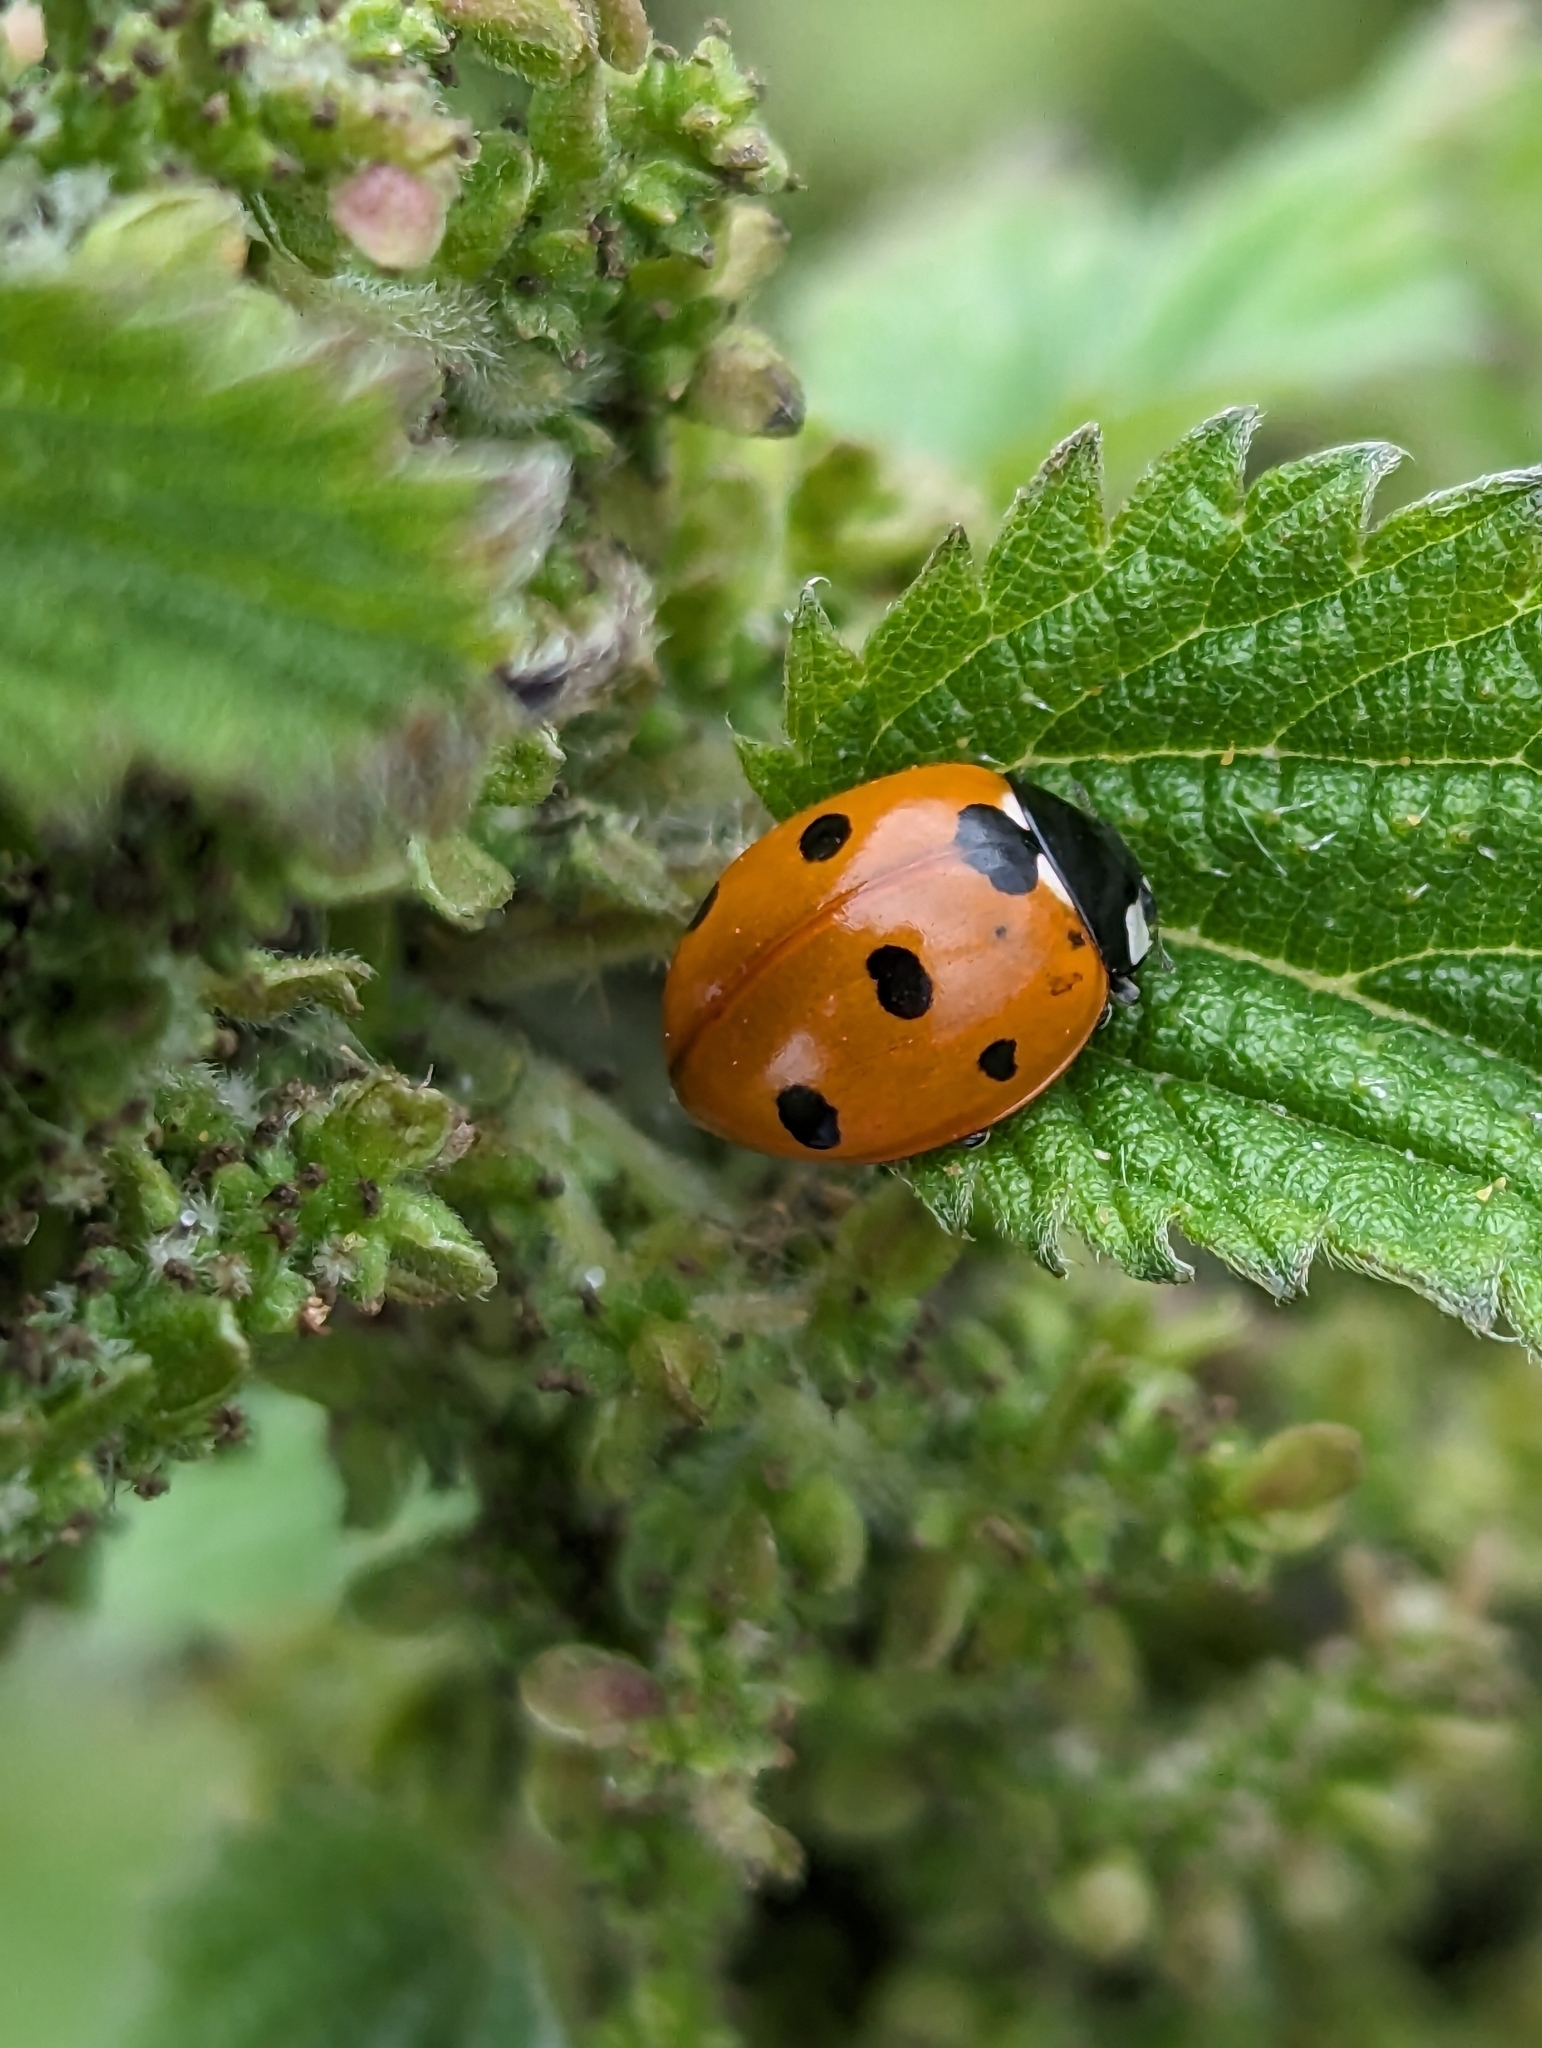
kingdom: Animalia
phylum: Arthropoda
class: Insecta
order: Coleoptera
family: Coccinellidae
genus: Coccinella
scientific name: Coccinella septempunctata
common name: Sevenspotted lady beetle
